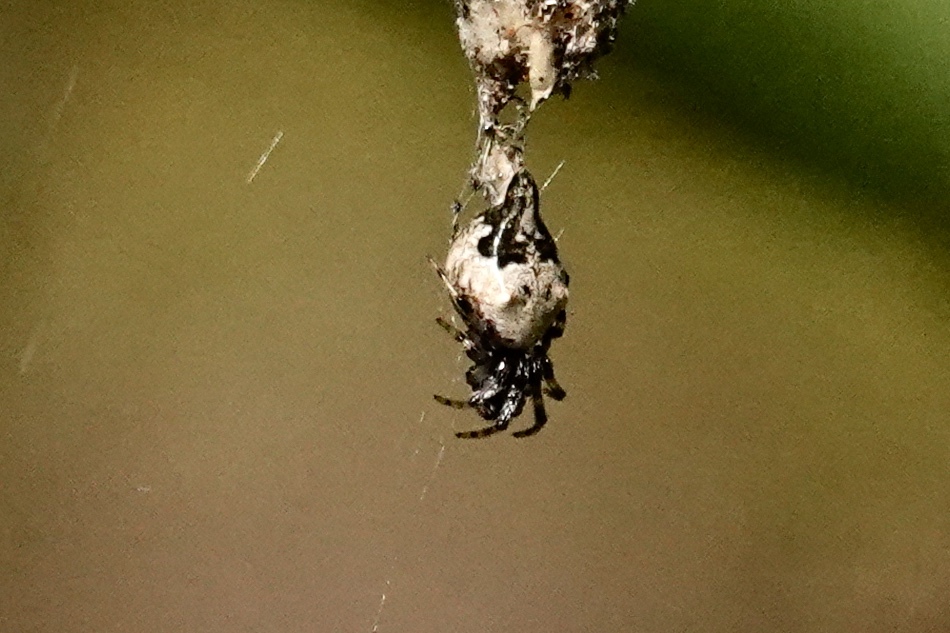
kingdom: Animalia
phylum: Arthropoda
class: Arachnida
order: Araneae
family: Araneidae
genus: Cyclosa
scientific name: Cyclosa turbinata
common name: Orb weavers
